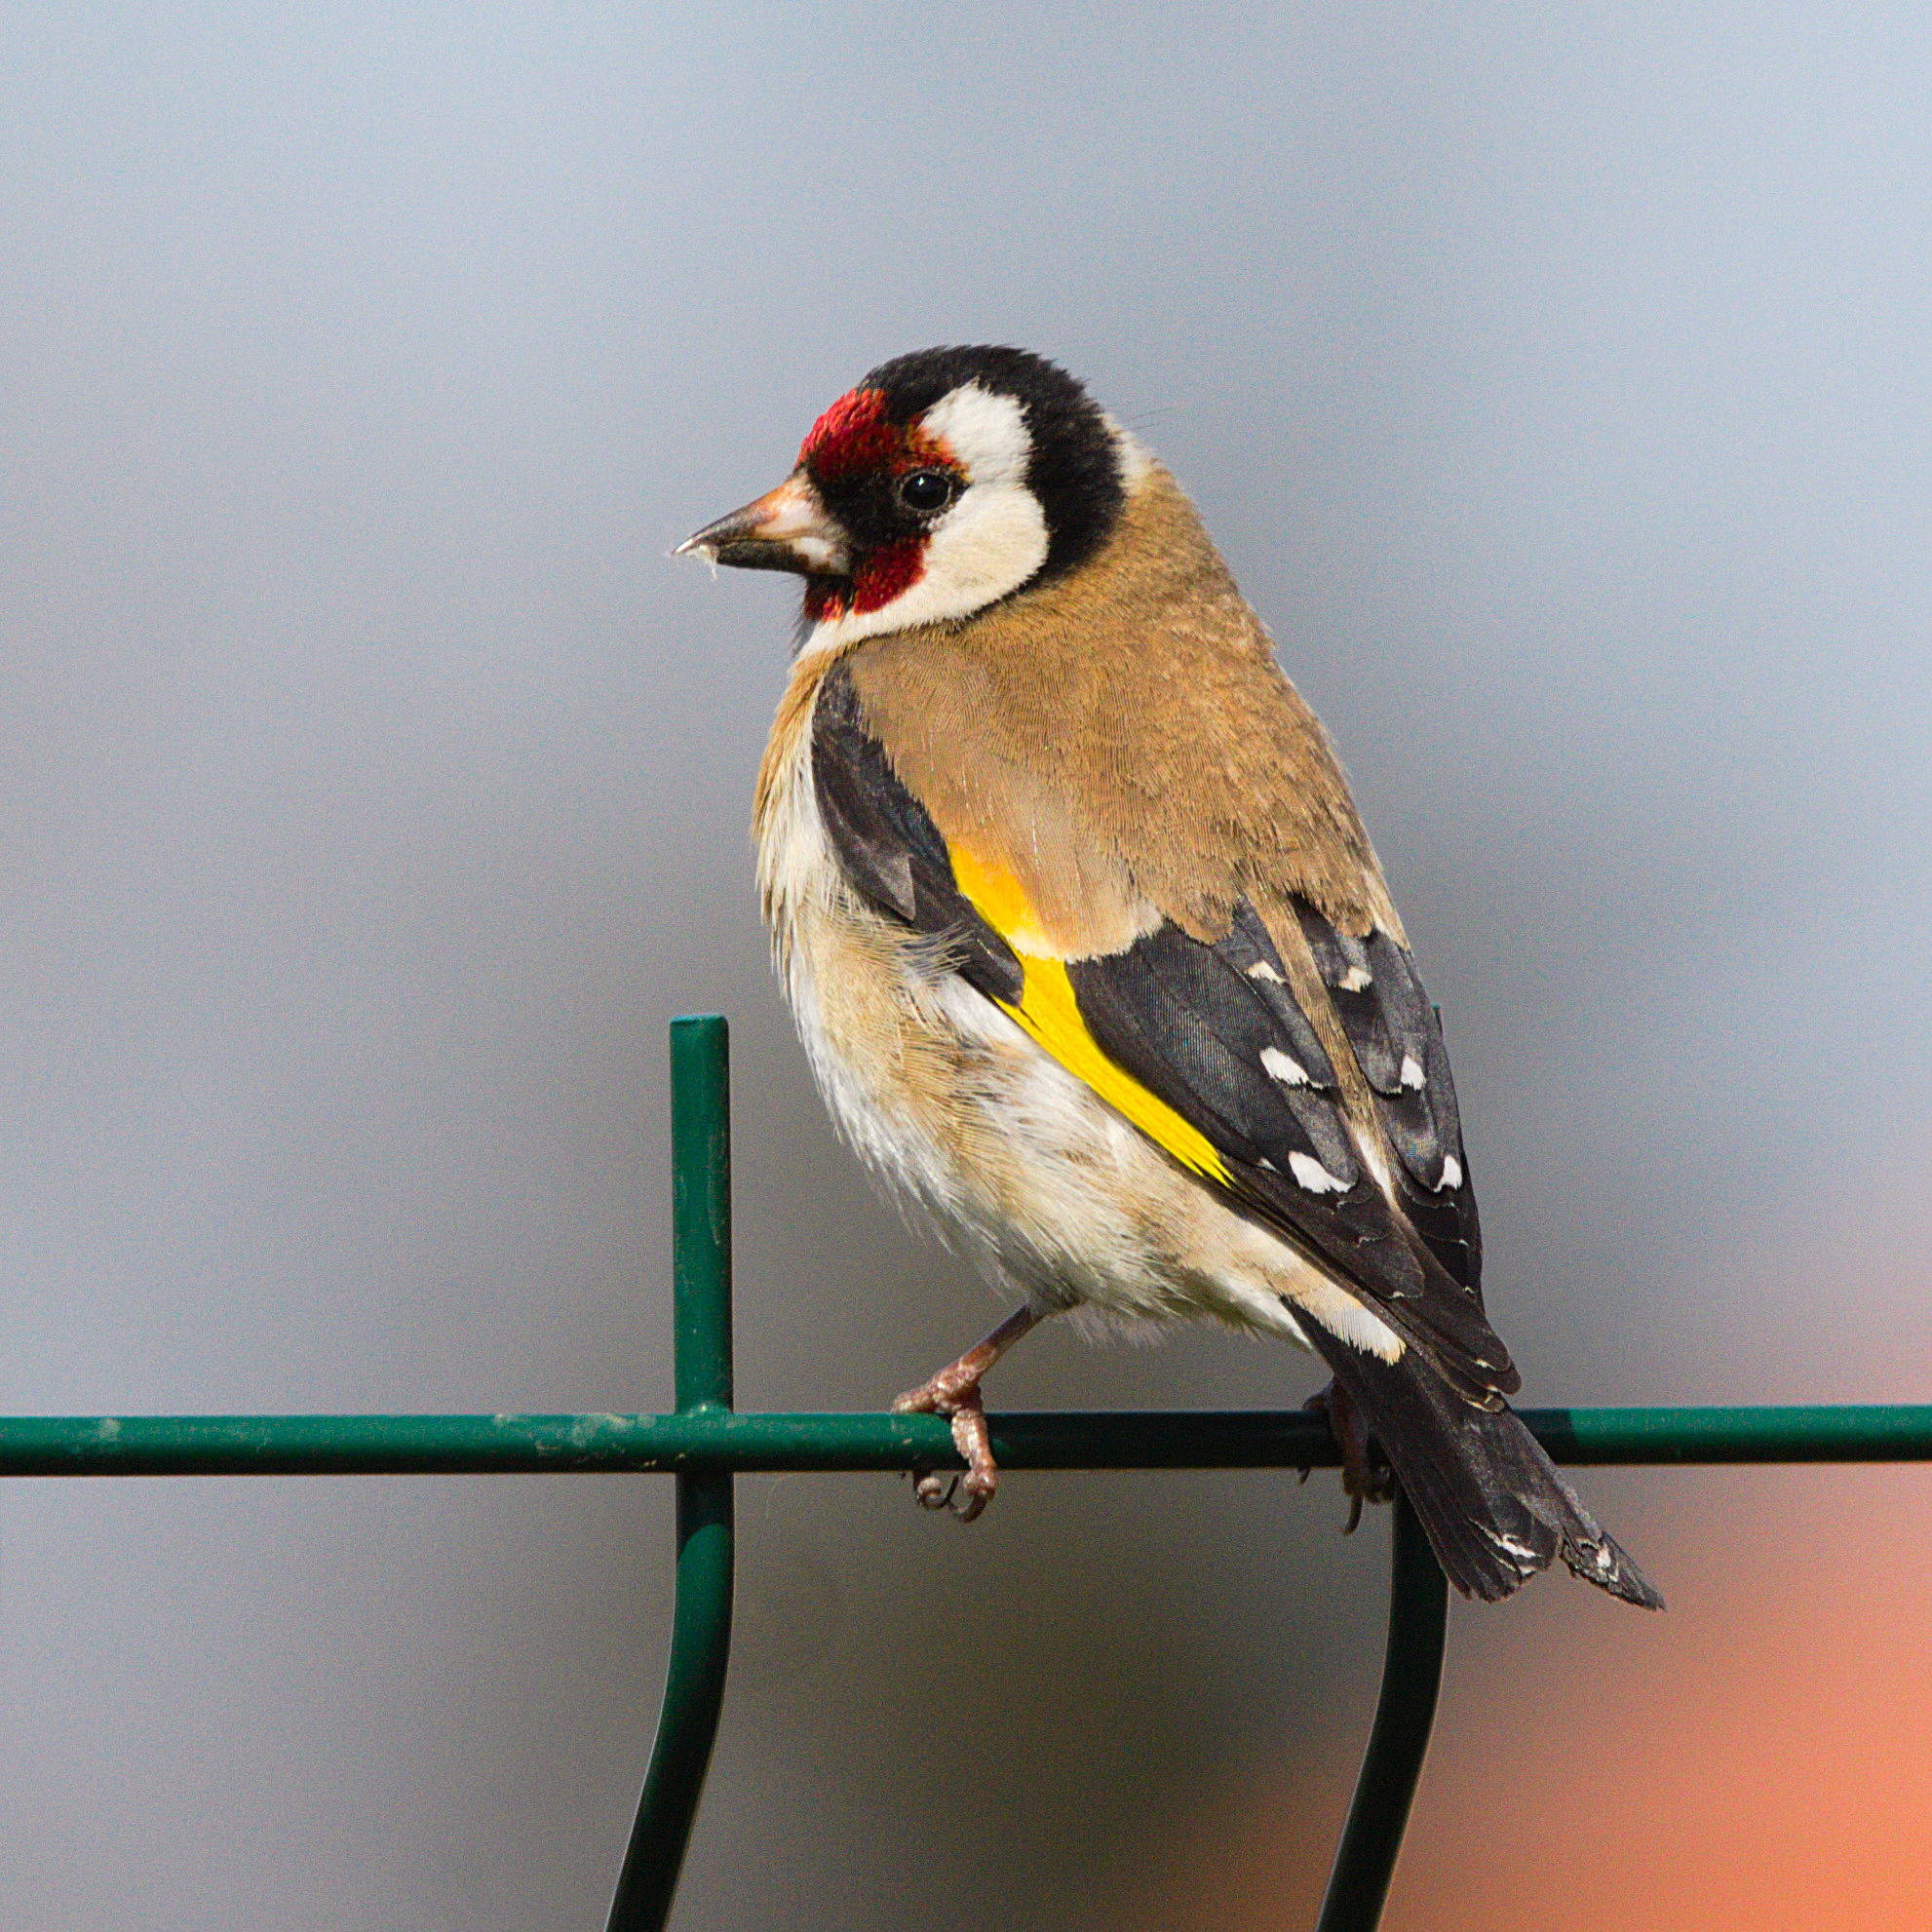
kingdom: Animalia
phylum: Chordata
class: Aves
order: Passeriformes
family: Fringillidae
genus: Carduelis
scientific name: Carduelis carduelis
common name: European goldfinch
